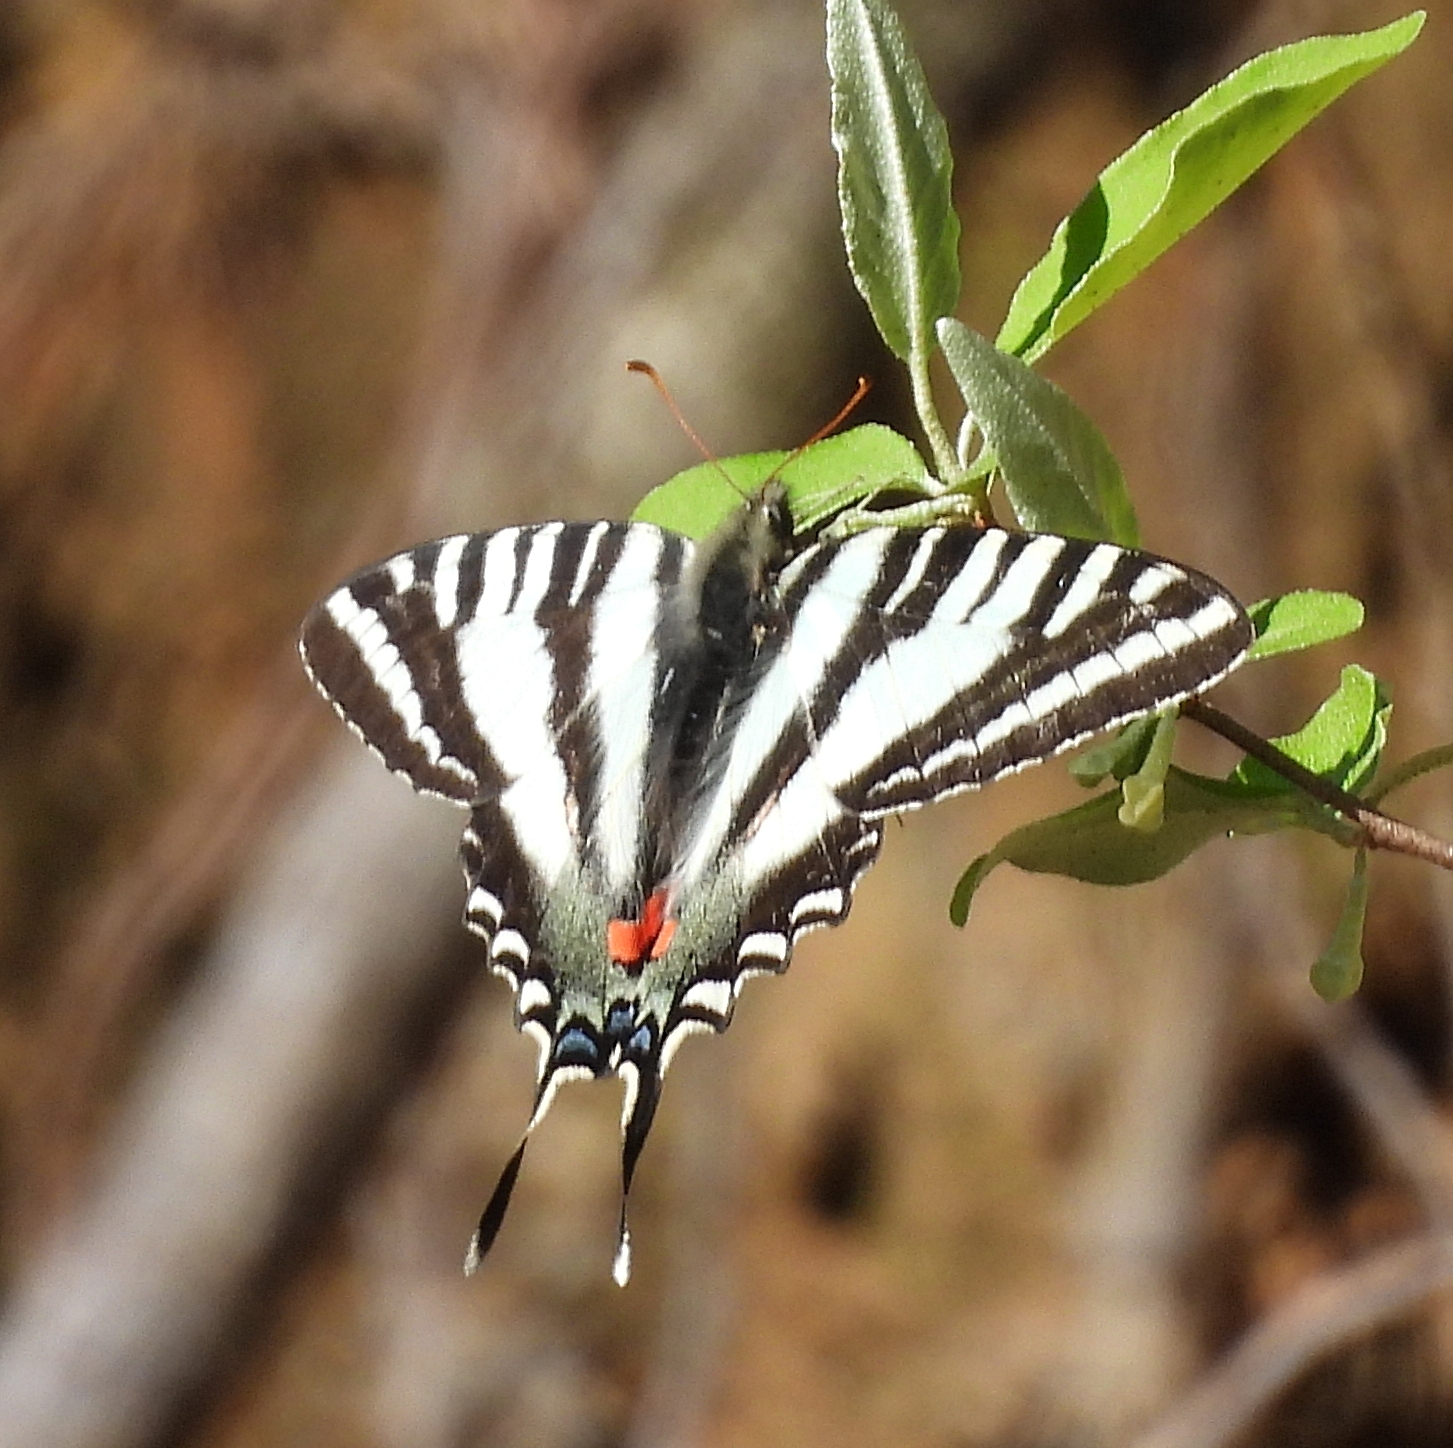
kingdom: Animalia
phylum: Arthropoda
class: Insecta
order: Lepidoptera
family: Papilionidae
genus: Protographium
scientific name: Protographium marcellus
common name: Zebra swallowtail
